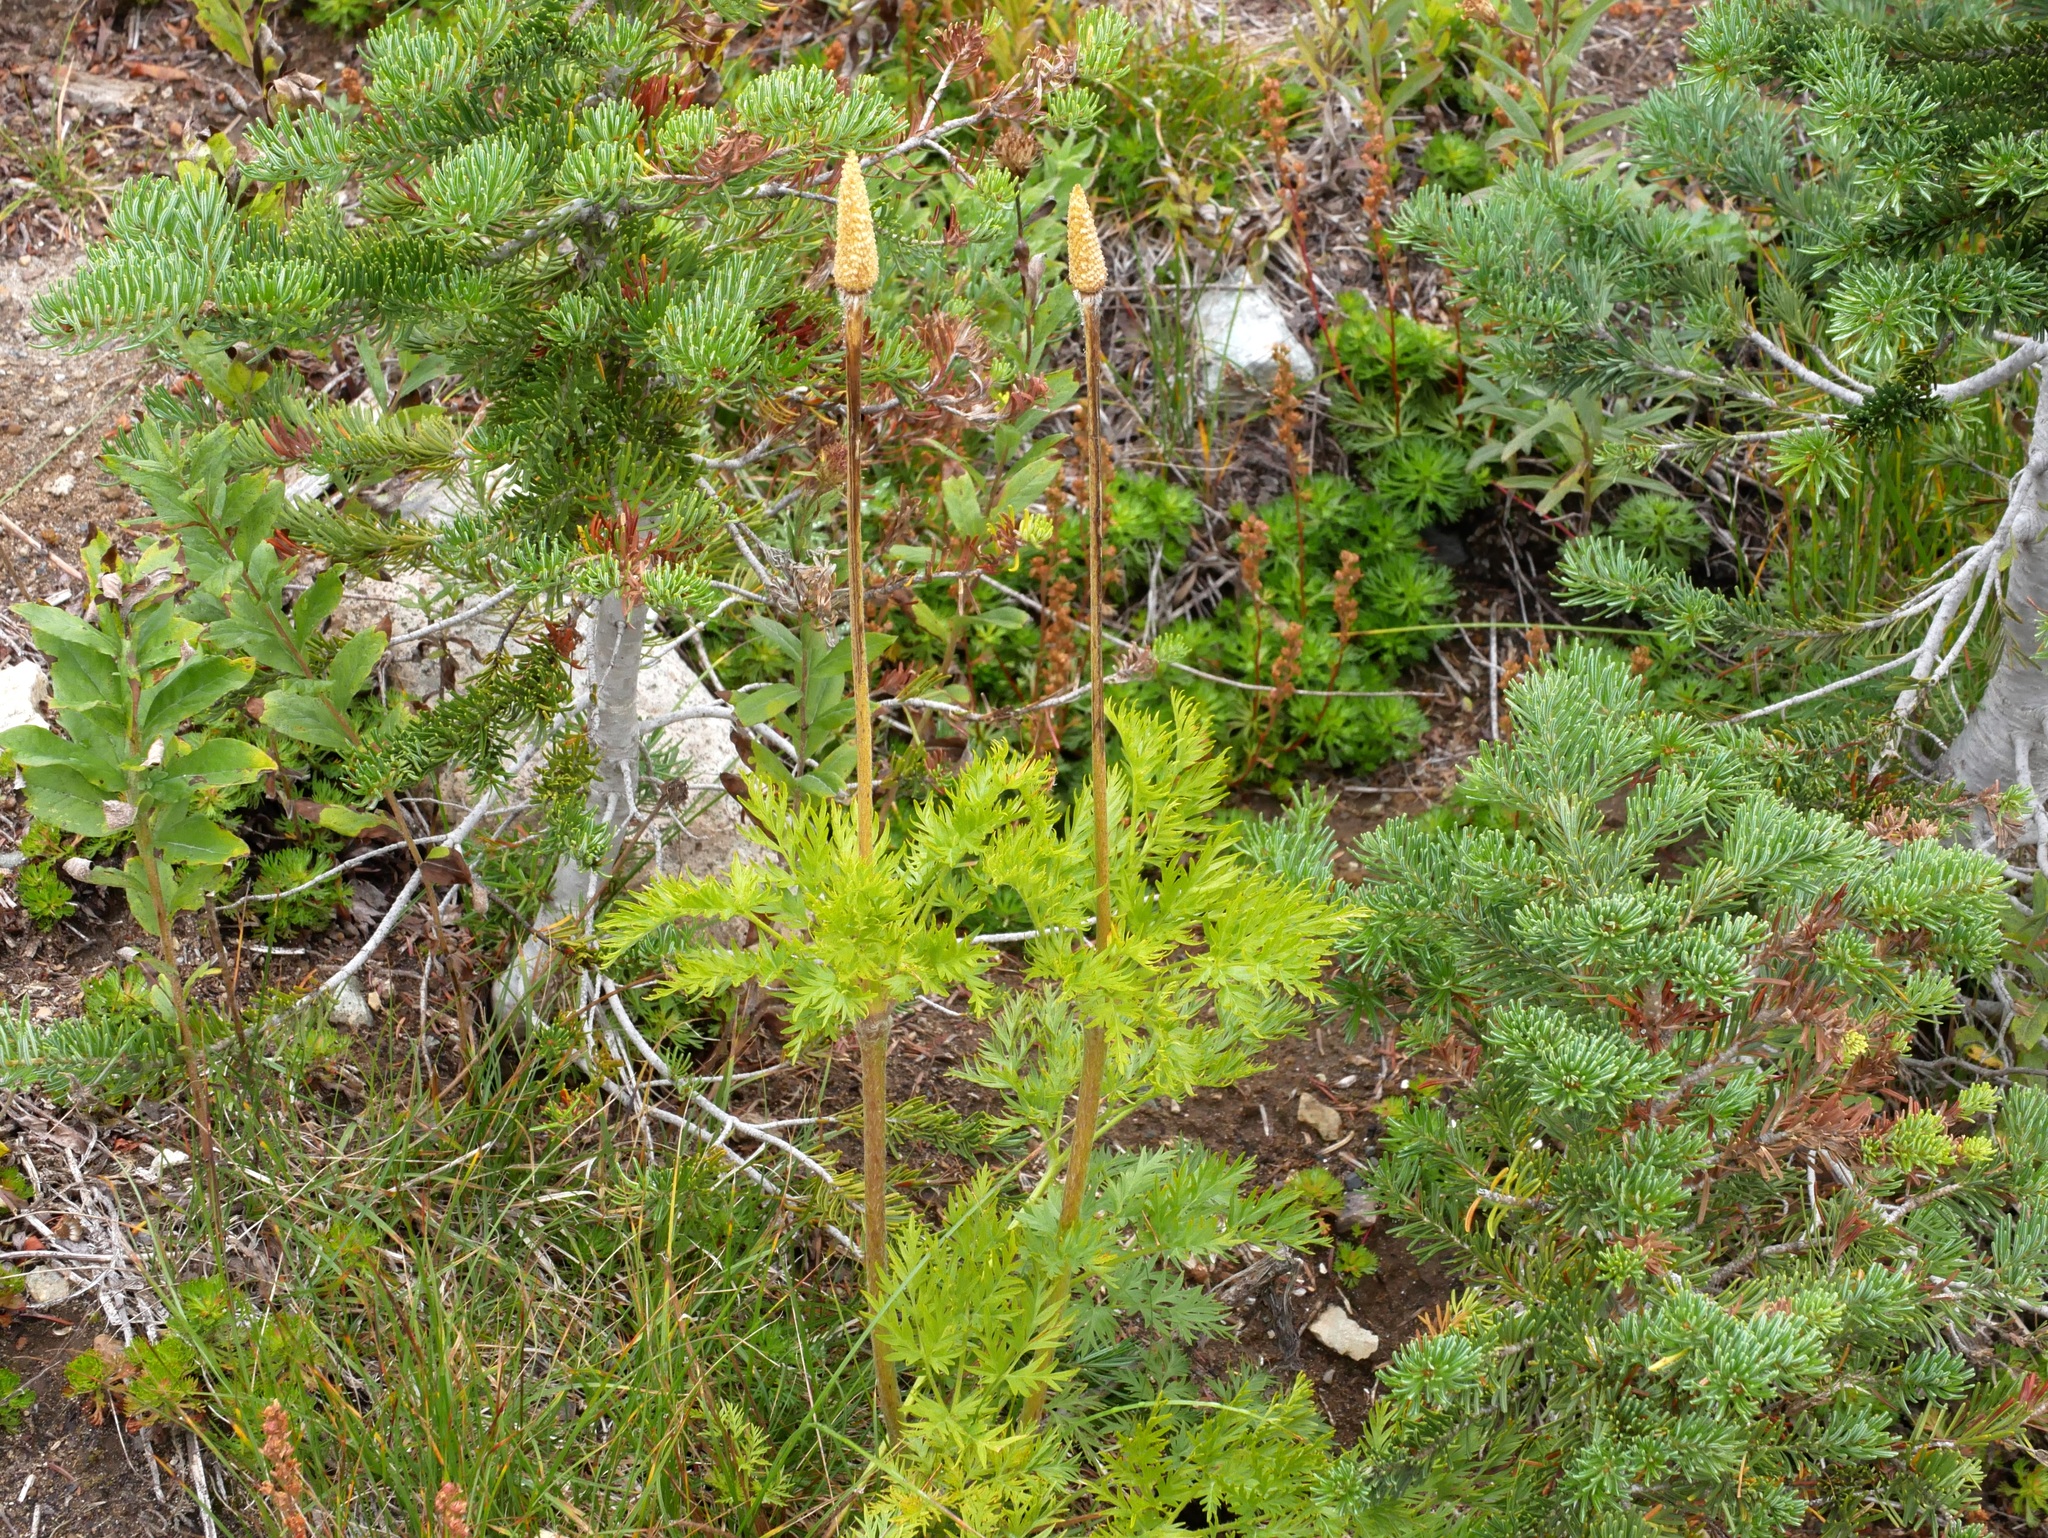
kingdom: Plantae
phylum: Tracheophyta
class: Magnoliopsida
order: Ranunculales
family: Ranunculaceae
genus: Pulsatilla
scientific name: Pulsatilla occidentalis
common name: Mountain pasqueflower
